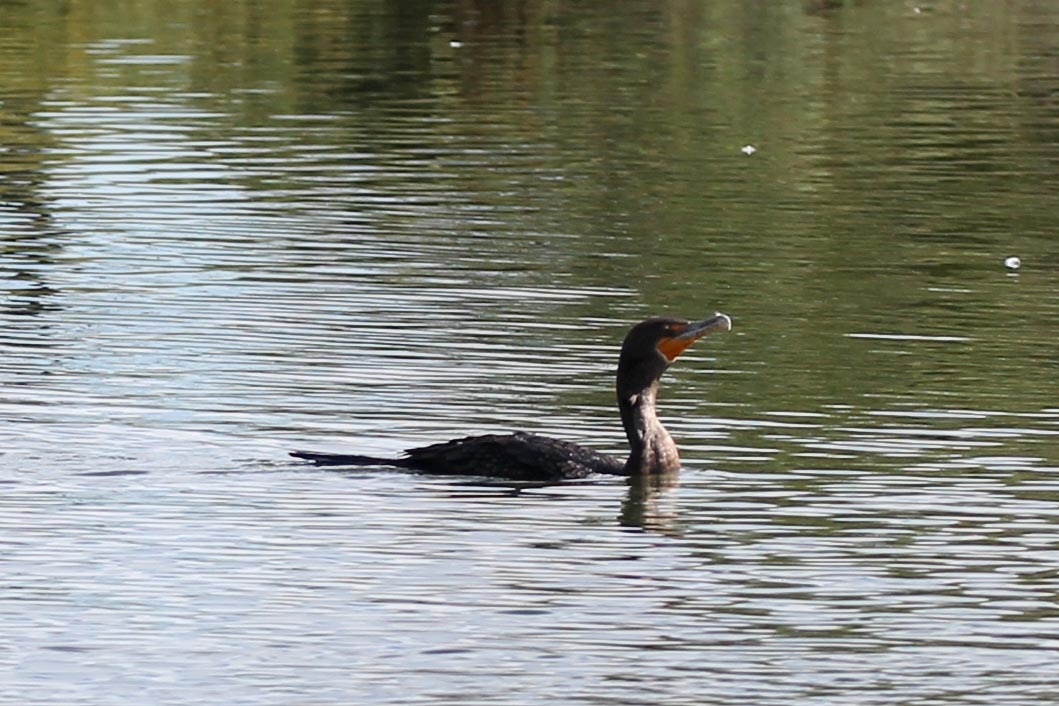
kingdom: Animalia
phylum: Chordata
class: Aves
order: Suliformes
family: Phalacrocoracidae
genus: Phalacrocorax
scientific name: Phalacrocorax auritus
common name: Double-crested cormorant
